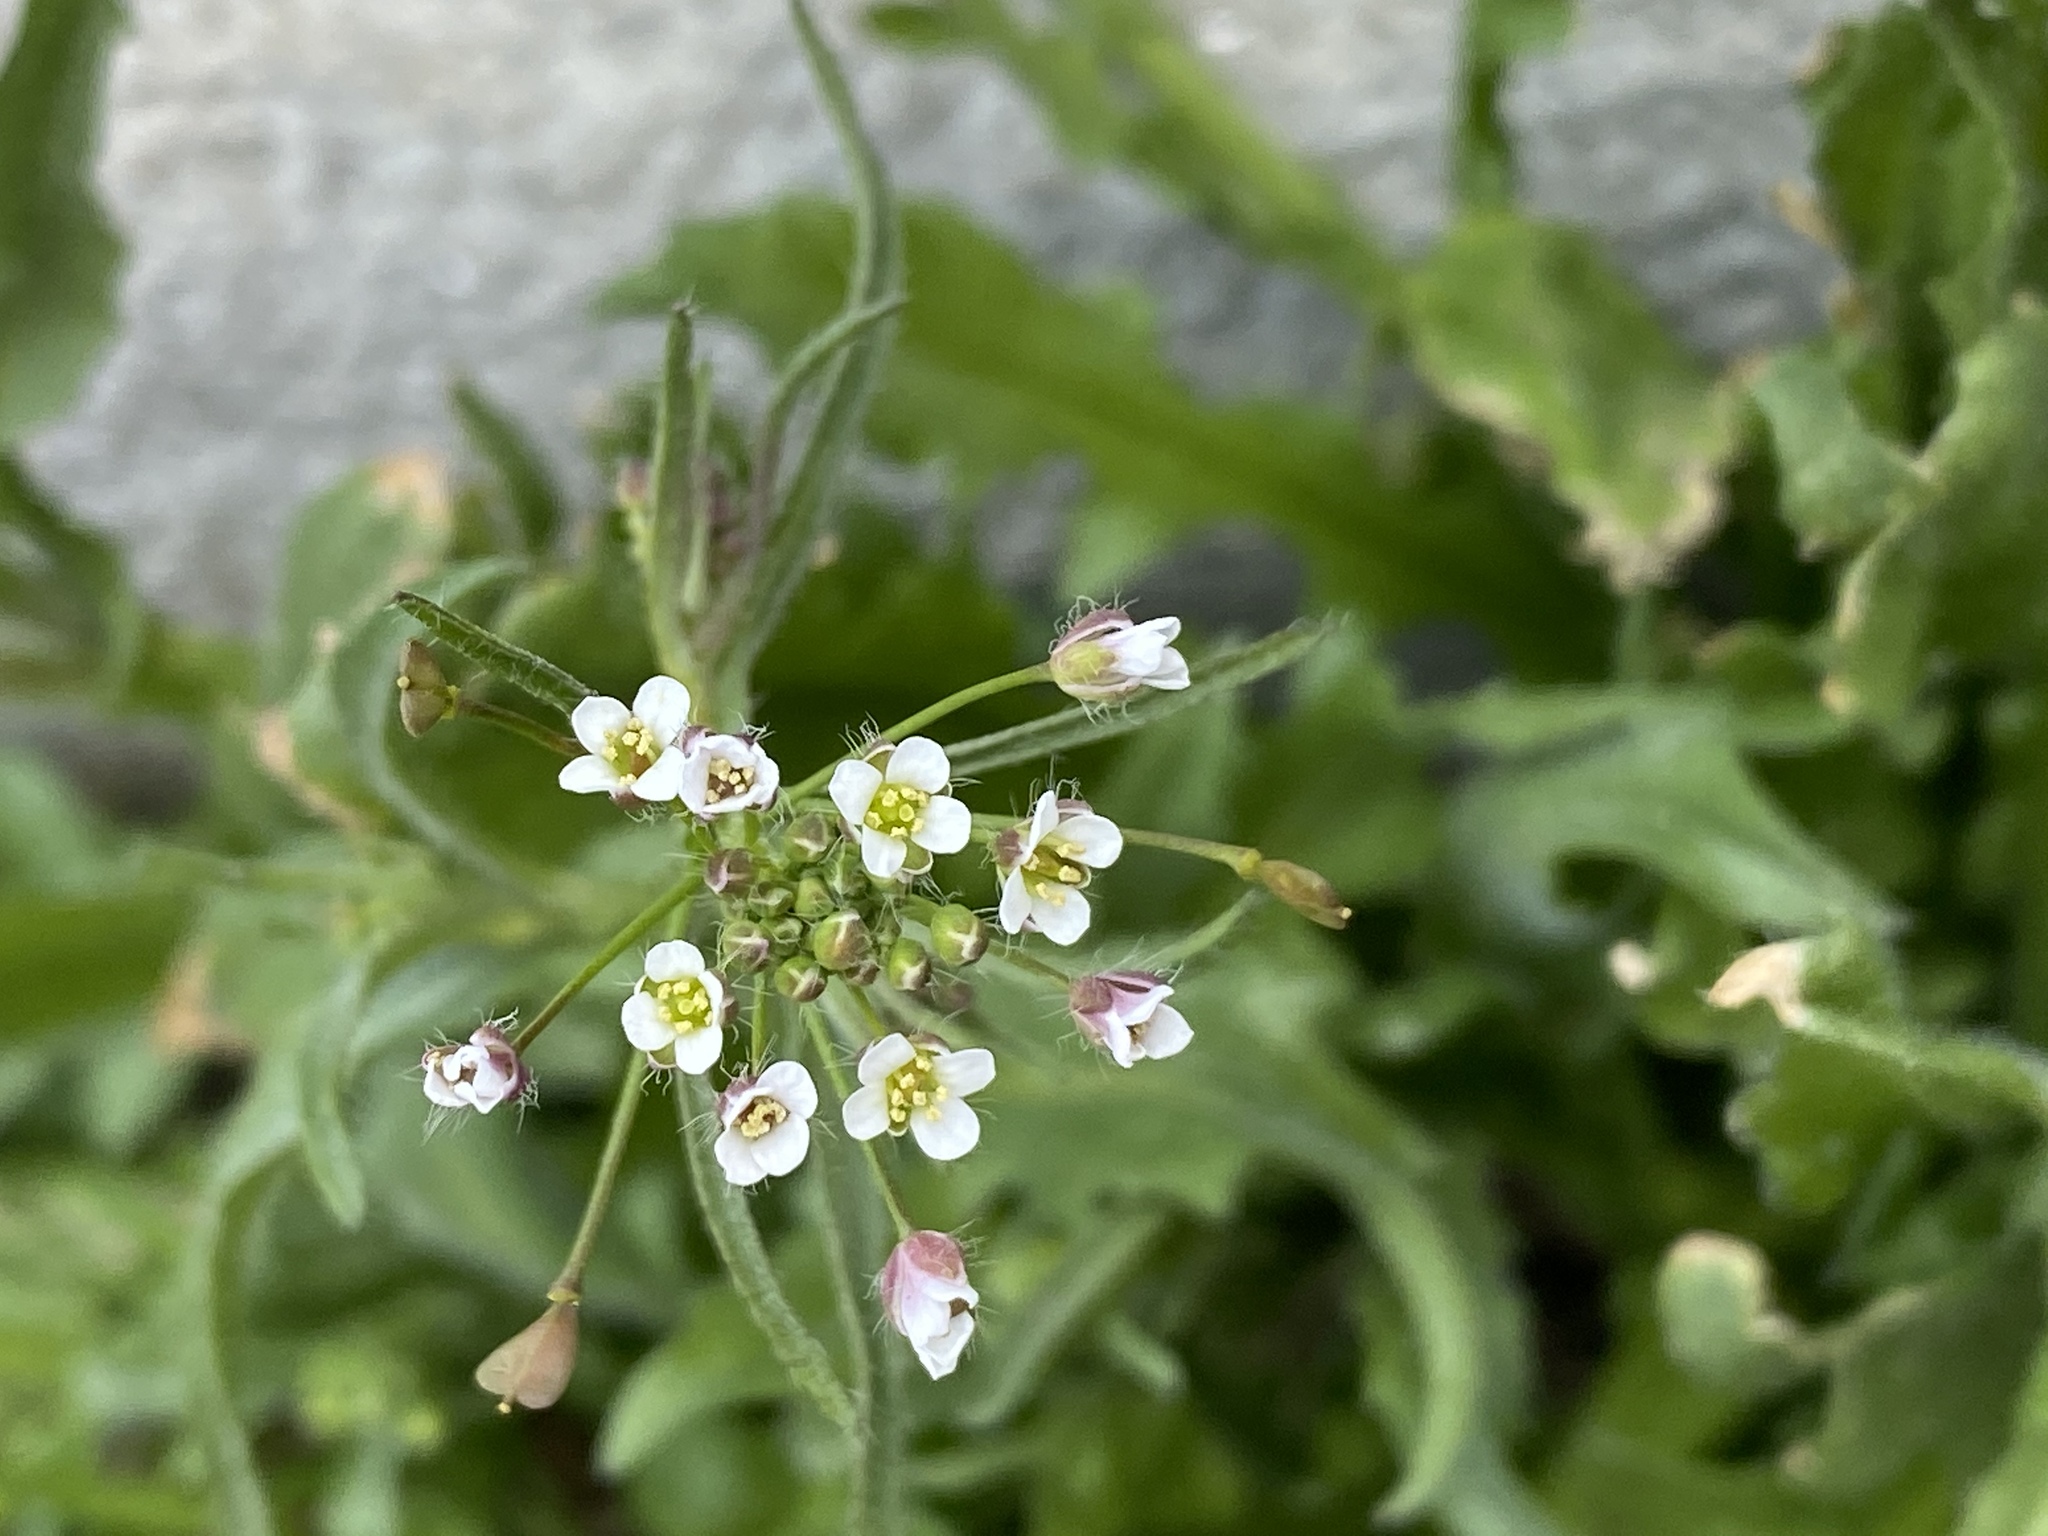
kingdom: Plantae
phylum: Tracheophyta
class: Magnoliopsida
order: Brassicales
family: Brassicaceae
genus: Capsella
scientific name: Capsella bursa-pastoris
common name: Shepherd's purse
